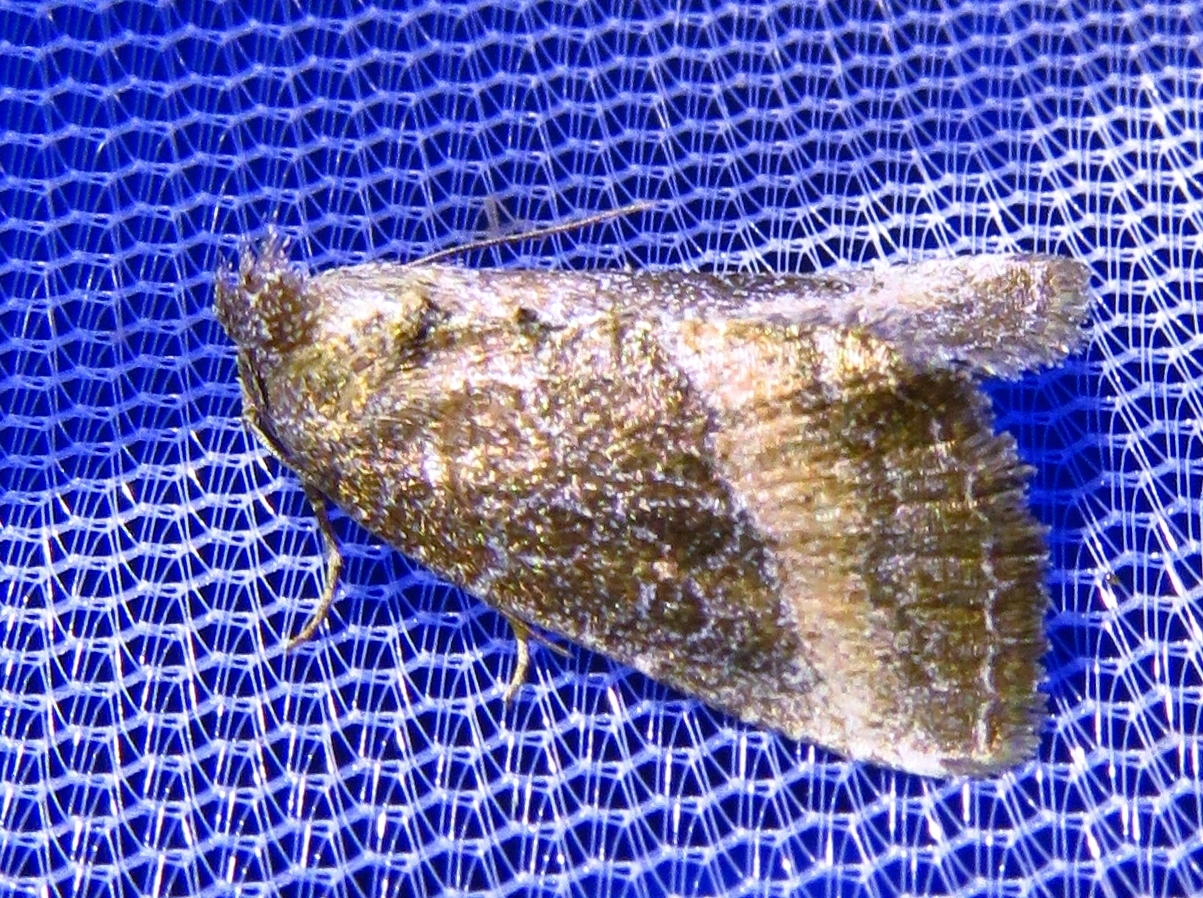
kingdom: Animalia
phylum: Arthropoda
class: Insecta
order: Lepidoptera
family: Noctuidae
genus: Ogdoconta
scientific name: Ogdoconta cinereola
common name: Common pinkband
